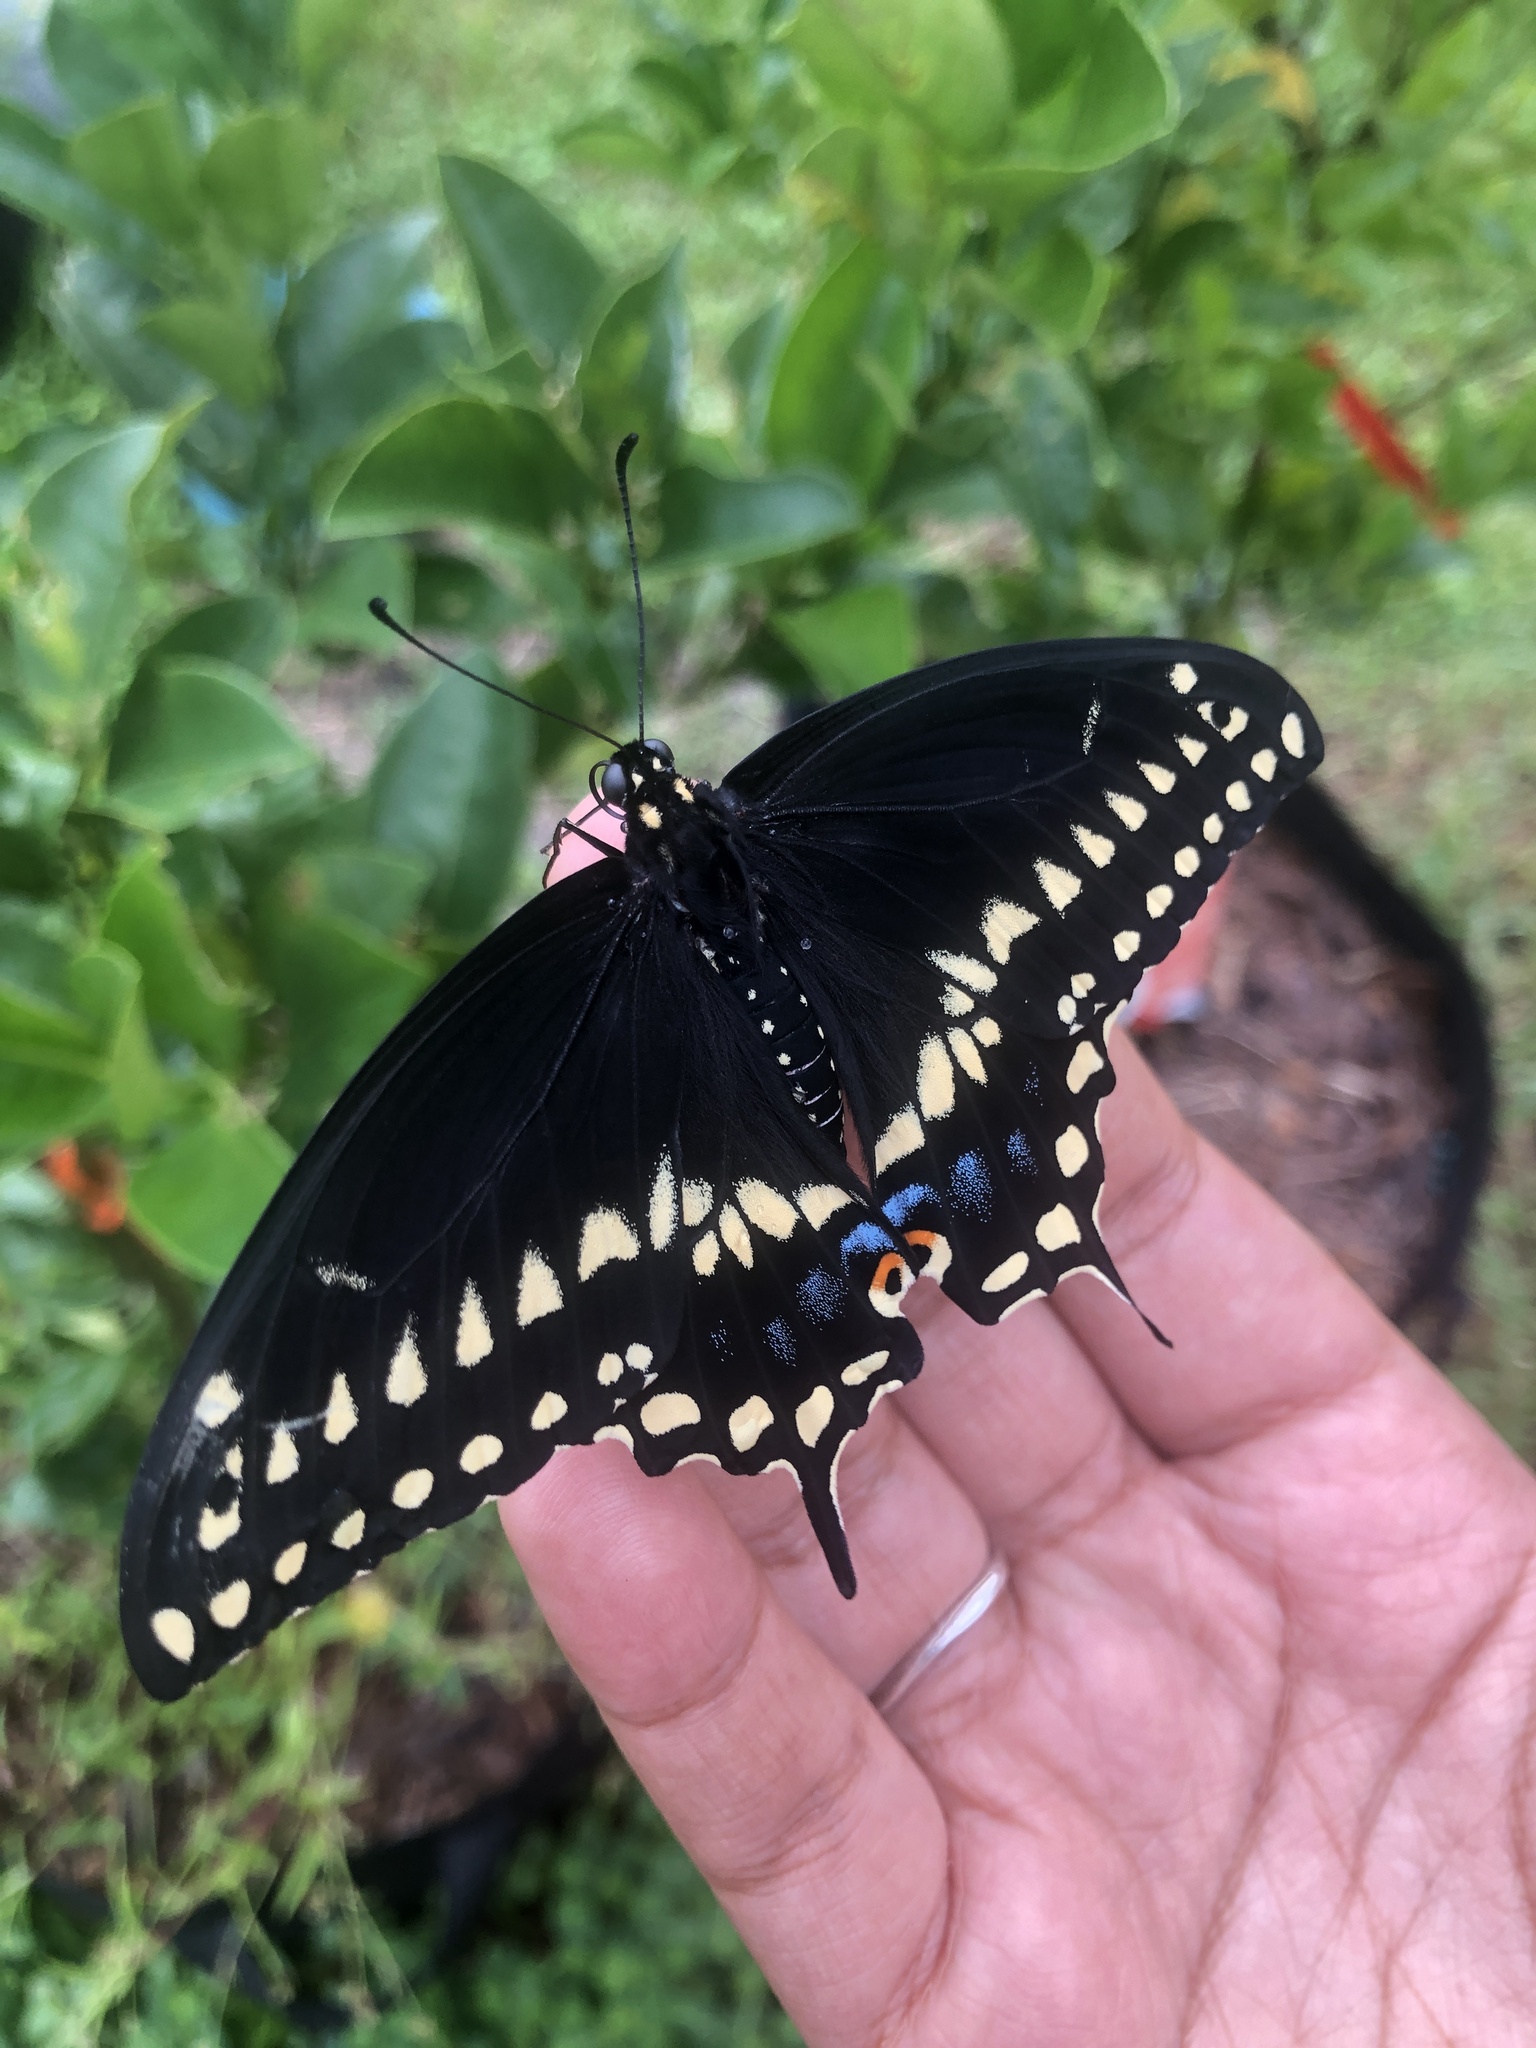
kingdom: Animalia
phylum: Arthropoda
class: Insecta
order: Lepidoptera
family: Papilionidae
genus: Papilio
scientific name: Papilio polyxenes
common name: Black swallowtail
